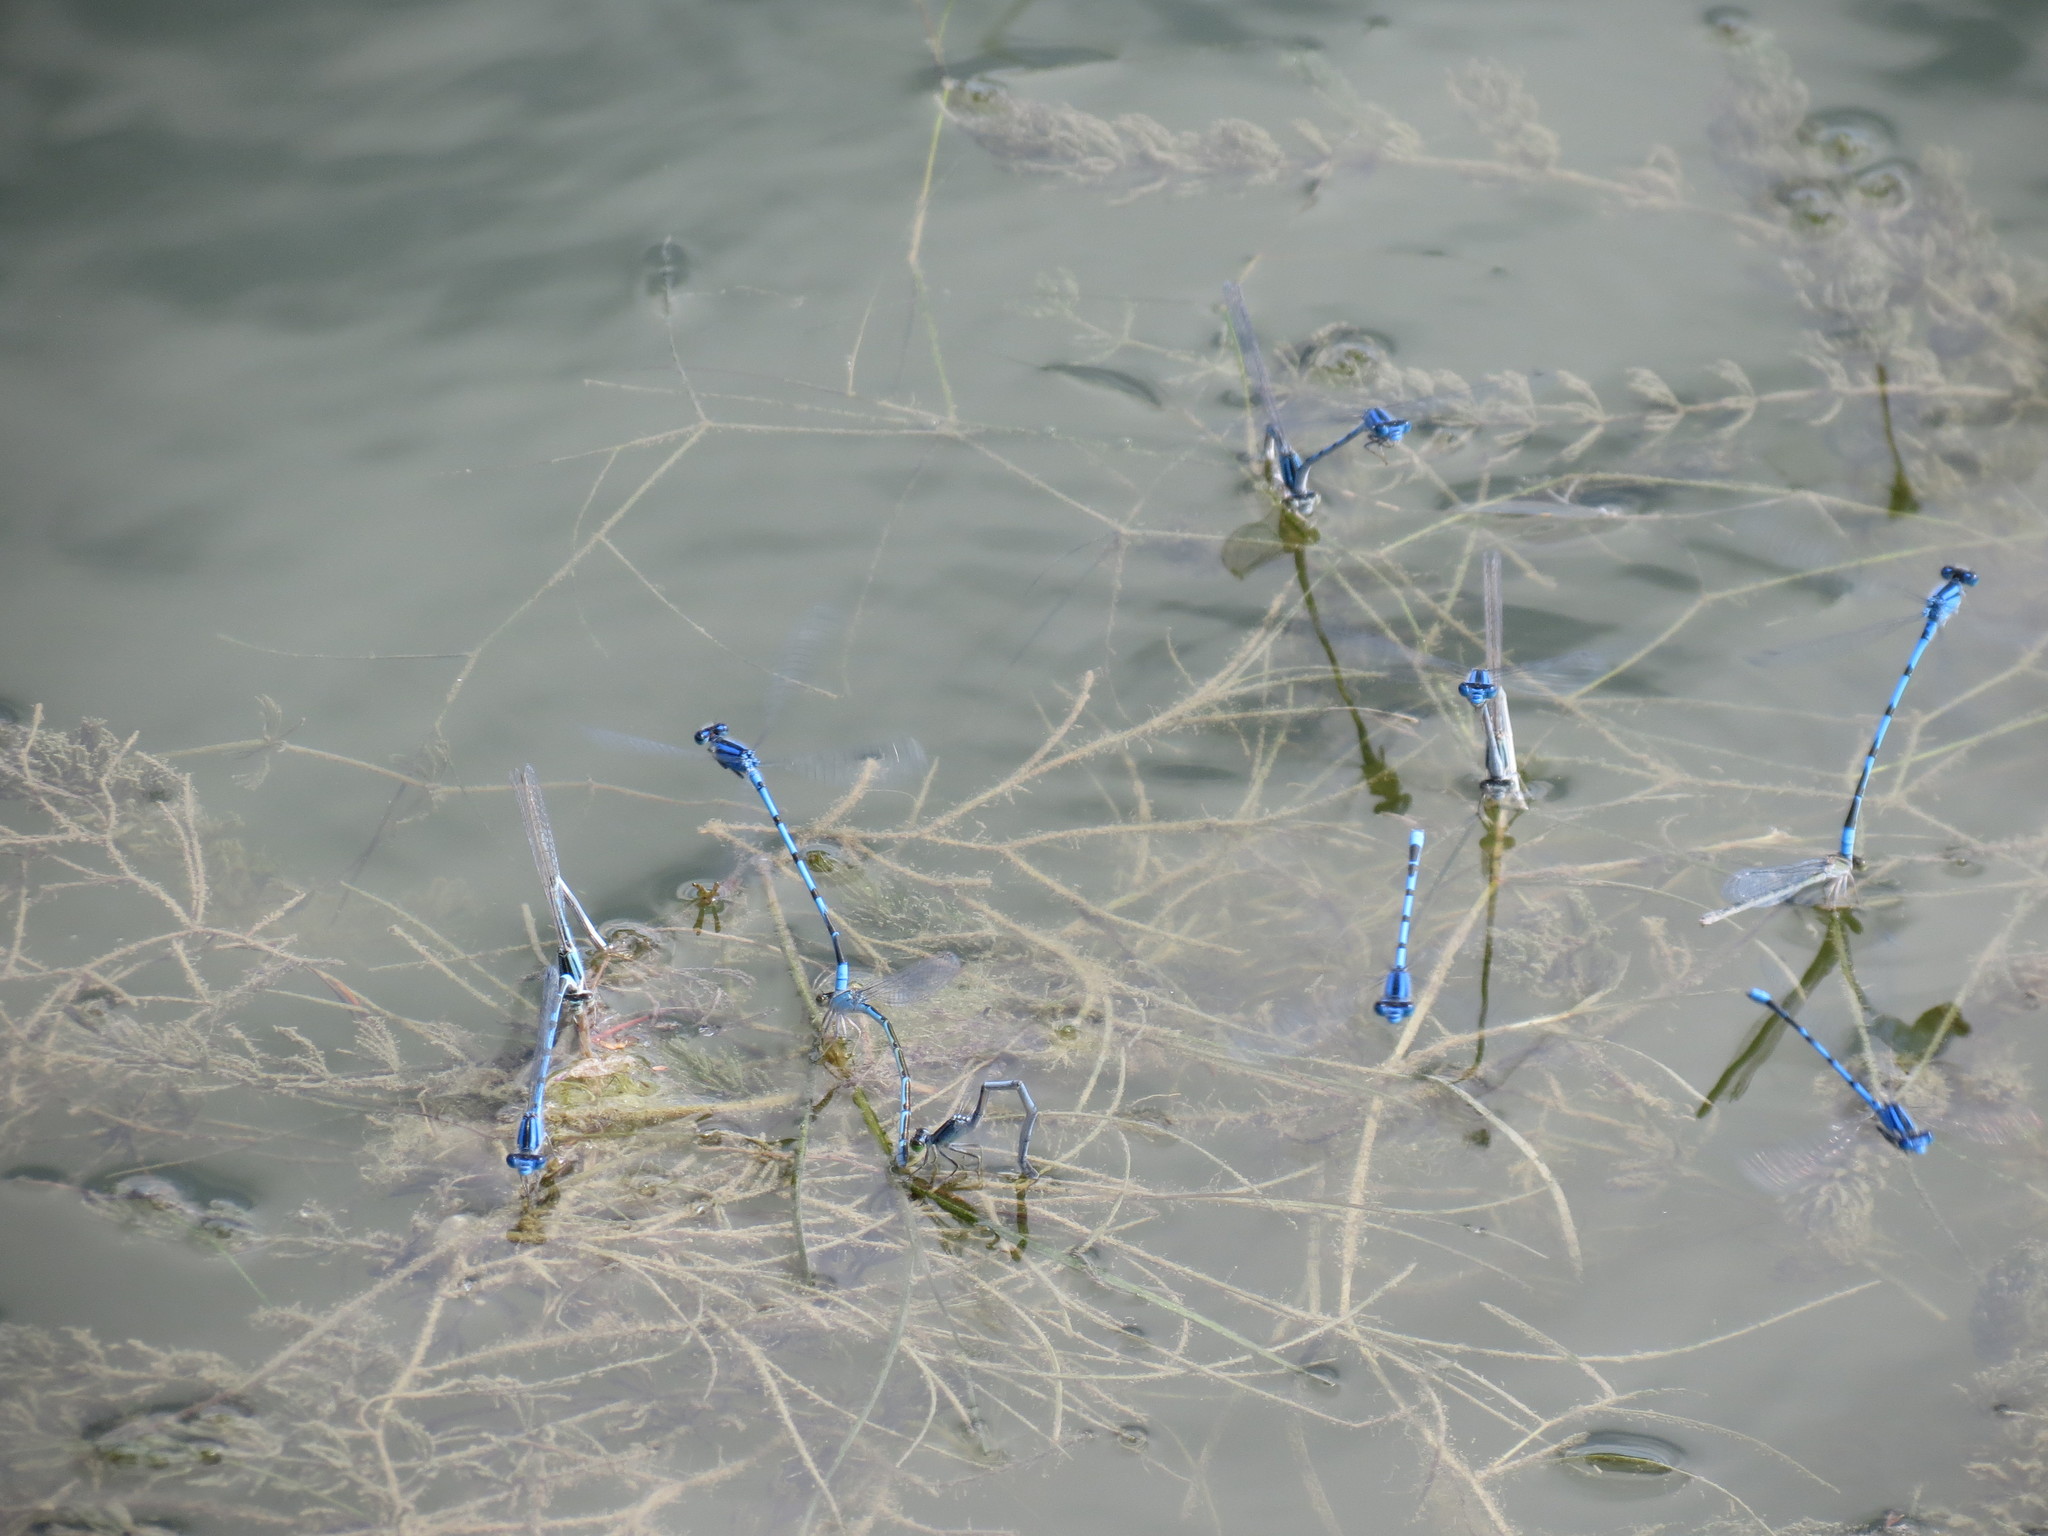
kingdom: Animalia
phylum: Arthropoda
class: Insecta
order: Odonata
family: Coenagrionidae
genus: Enallagma
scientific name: Enallagma civile
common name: Damselfly
